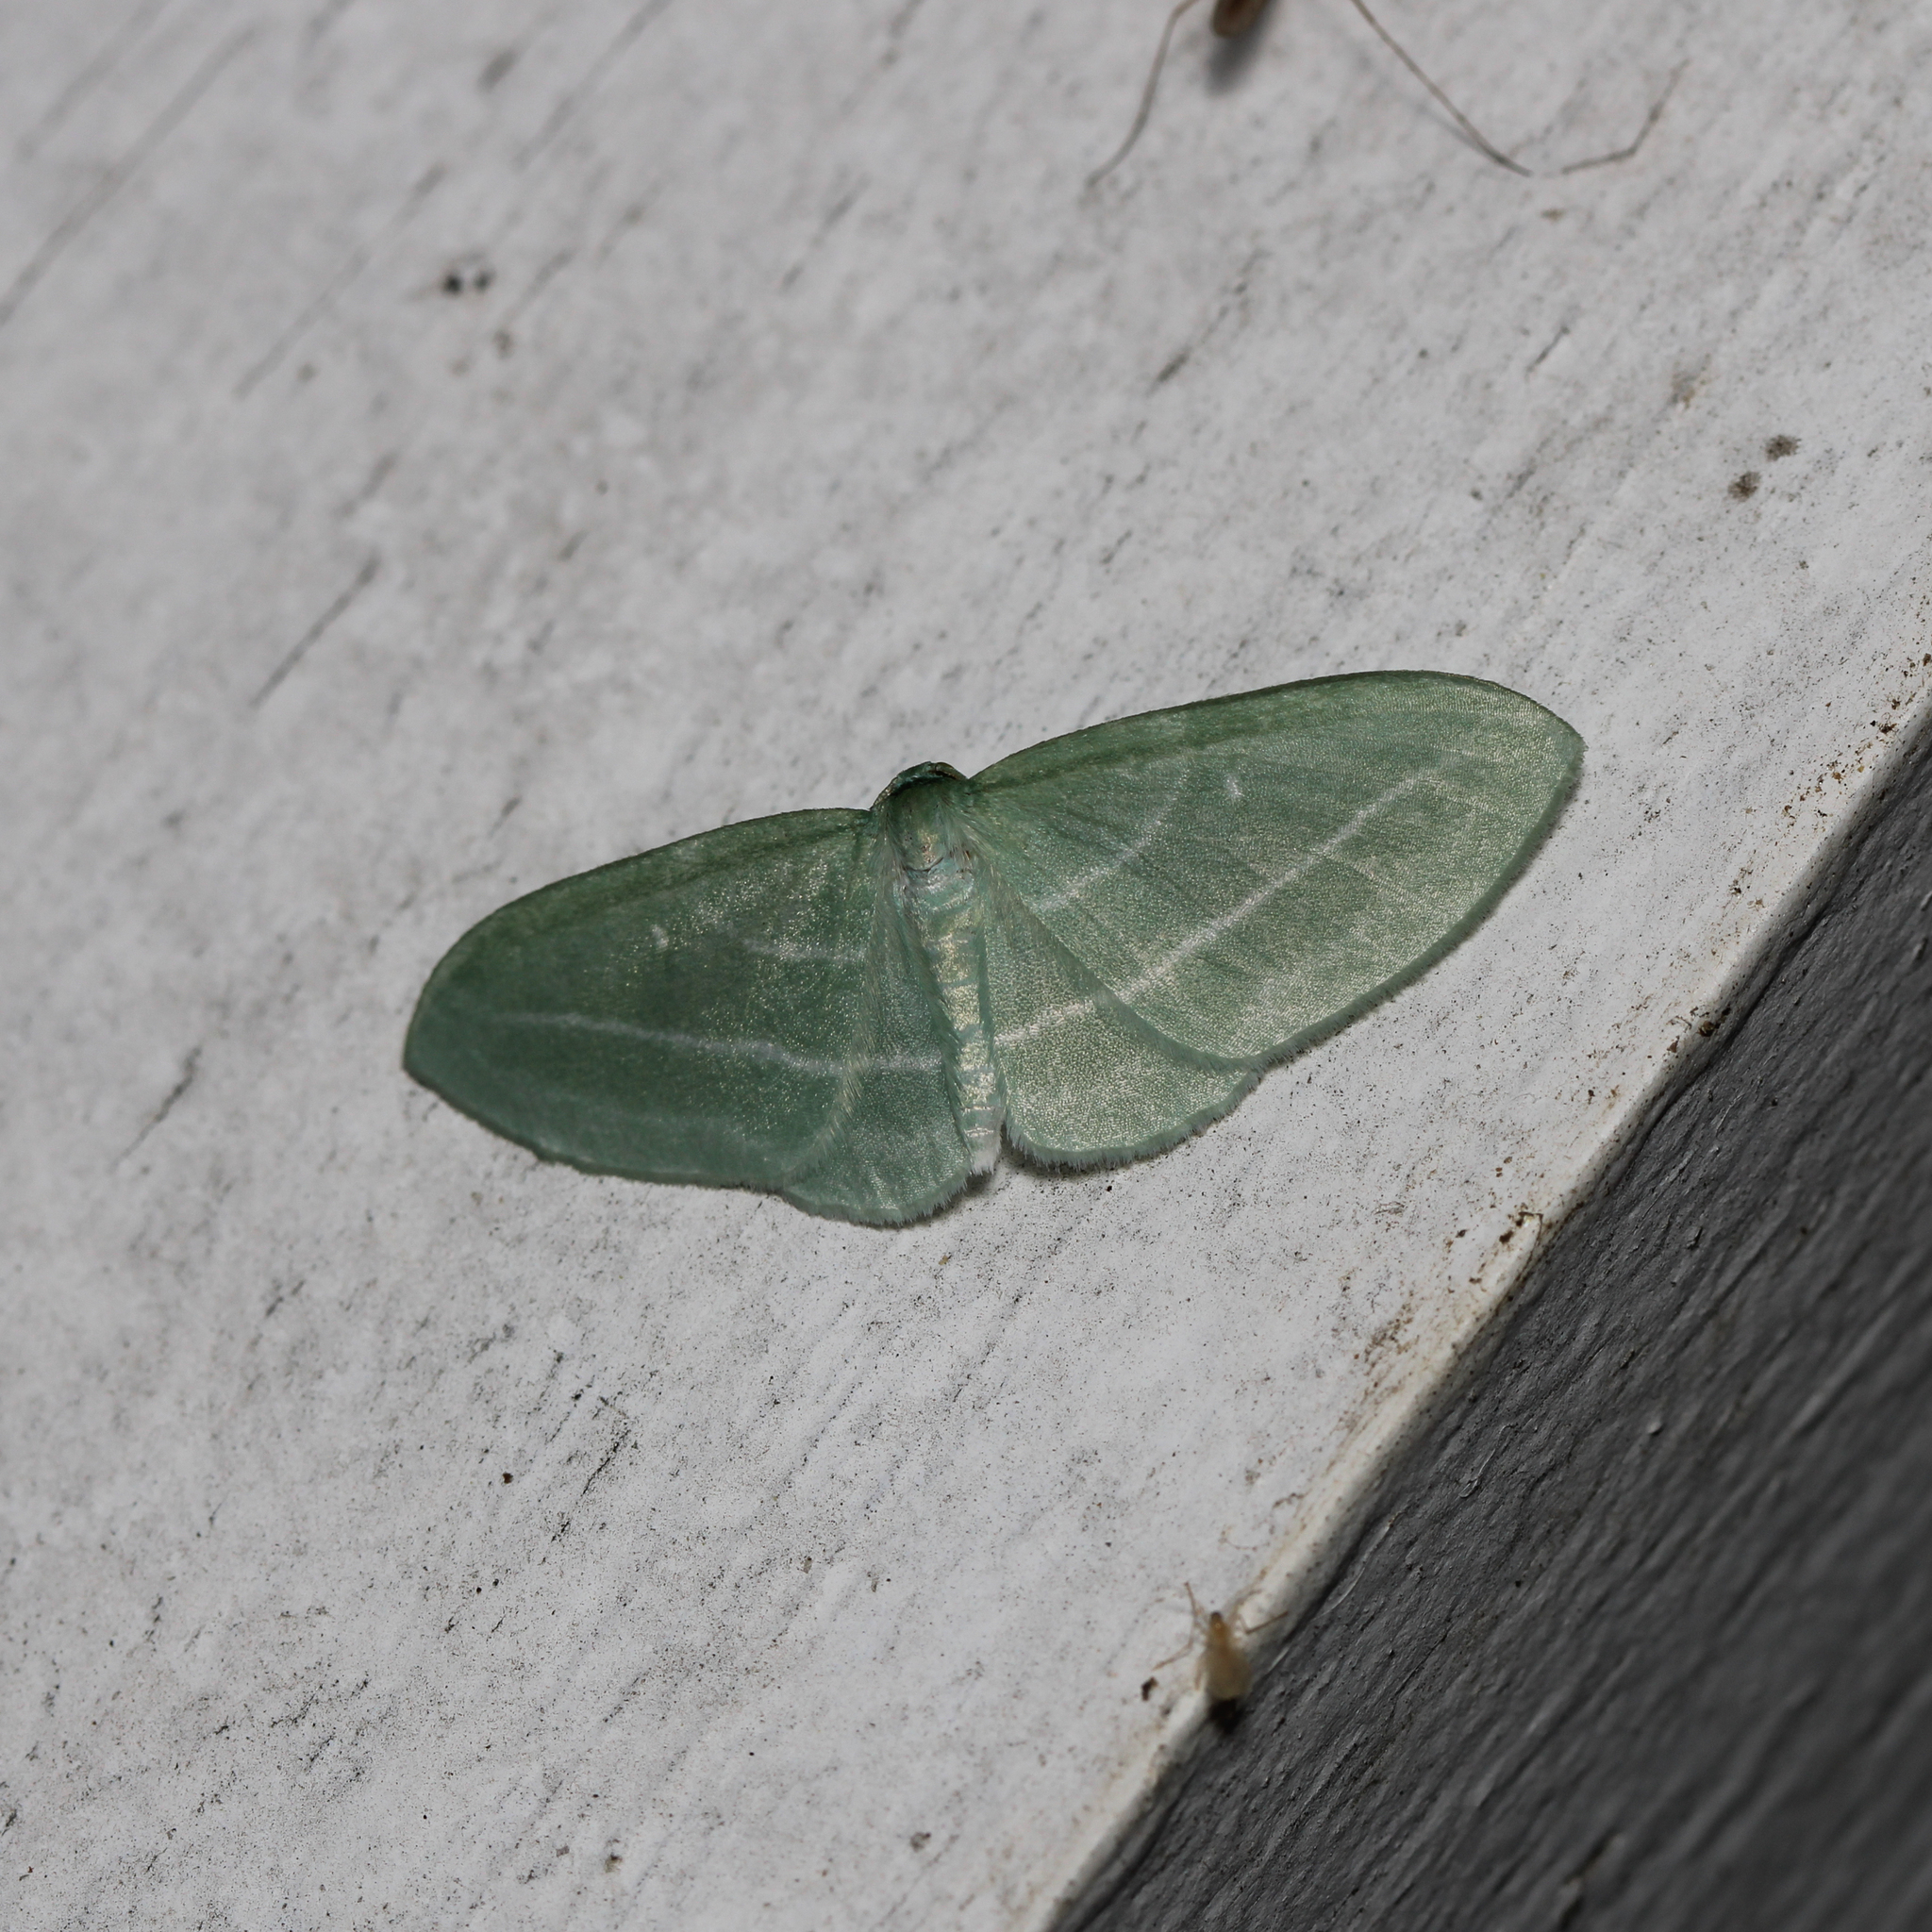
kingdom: Animalia
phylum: Arthropoda
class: Insecta
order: Lepidoptera
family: Geometridae
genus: Dyspteris
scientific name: Dyspteris abortivaria
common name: Bad-wing
